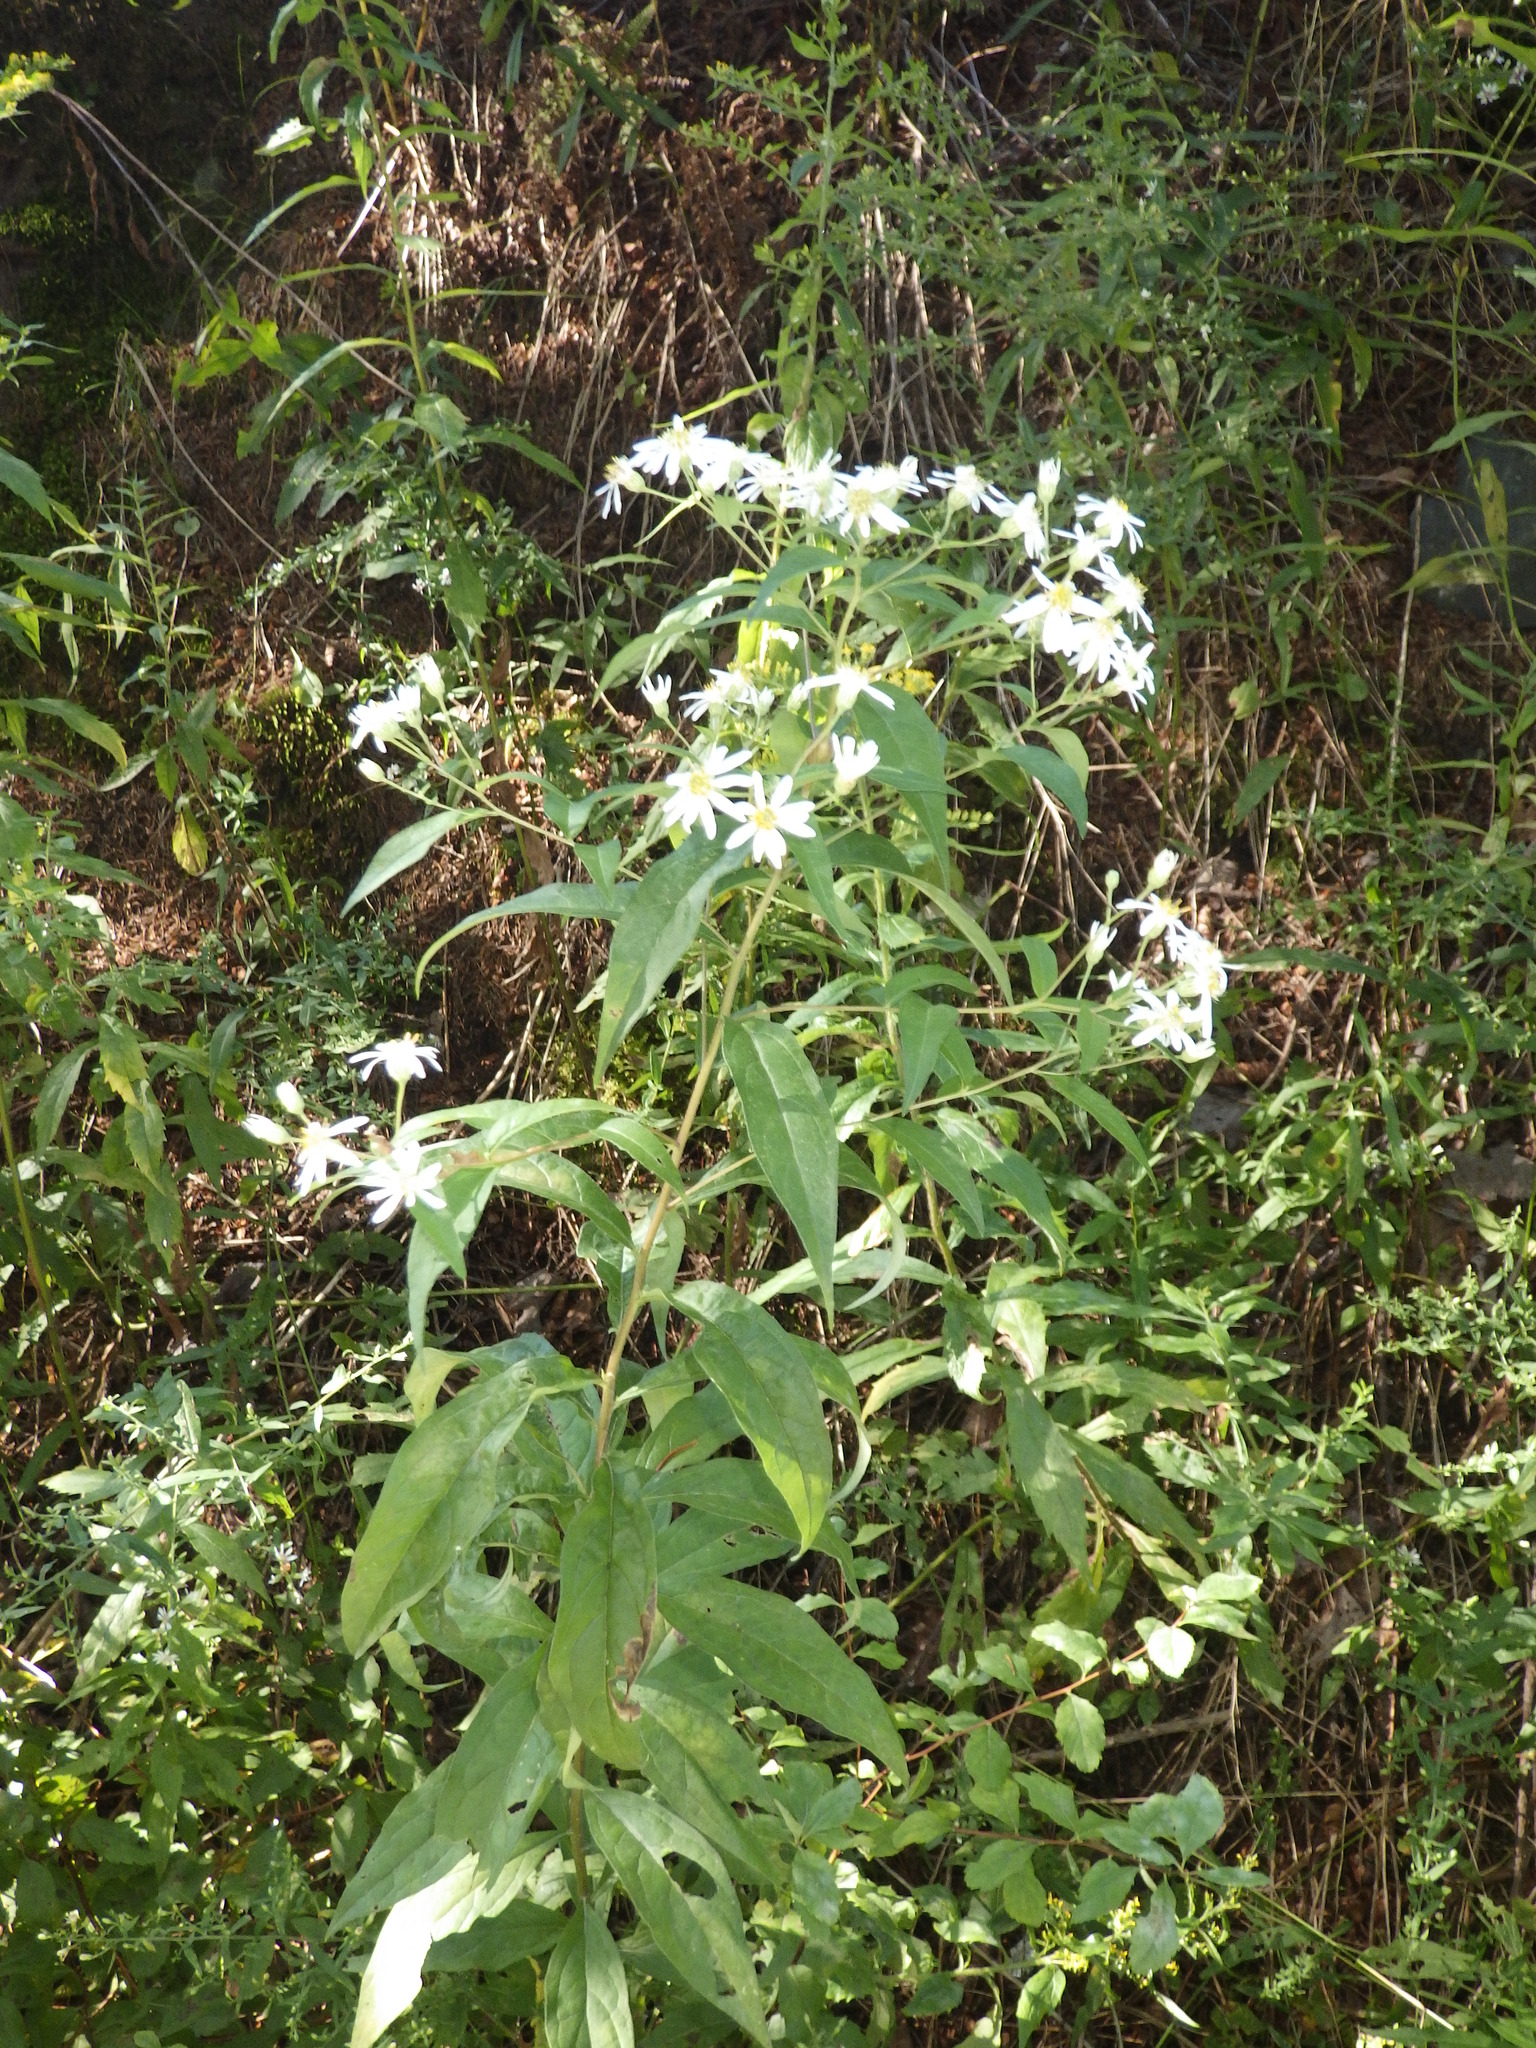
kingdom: Plantae
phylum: Tracheophyta
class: Magnoliopsida
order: Asterales
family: Asteraceae
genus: Doellingeria
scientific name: Doellingeria umbellata
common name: Flat-top white aster
